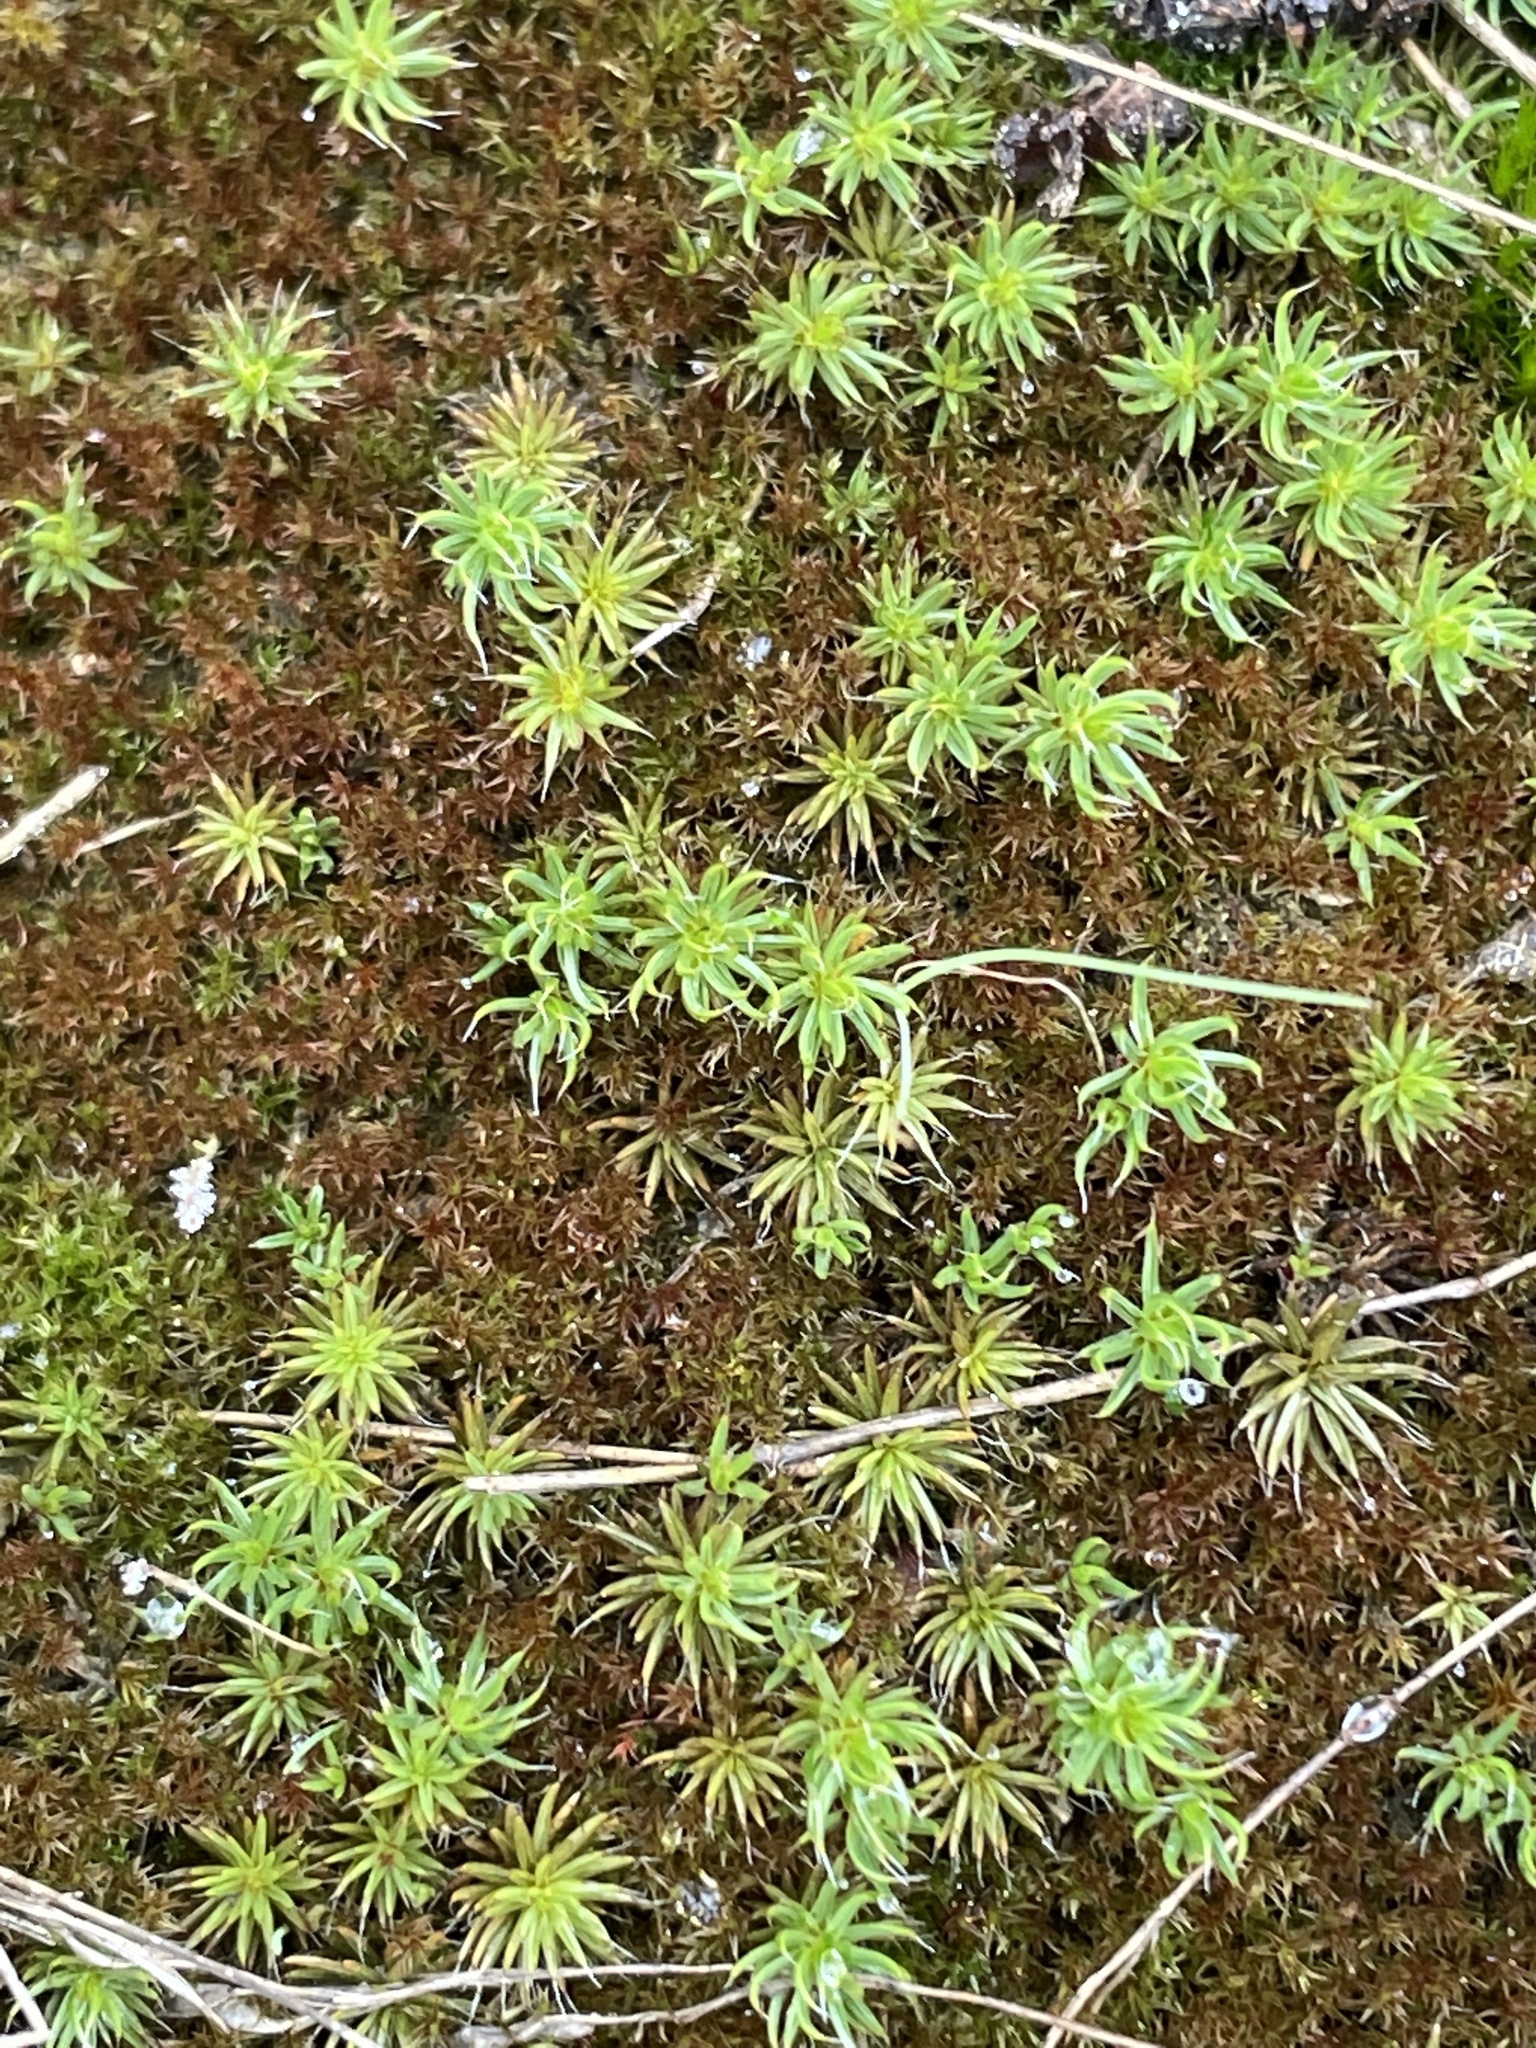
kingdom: Plantae
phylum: Bryophyta
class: Polytrichopsida
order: Polytrichales
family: Polytrichaceae
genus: Polytrichum
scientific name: Polytrichum piliferum
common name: Bristly haircap
